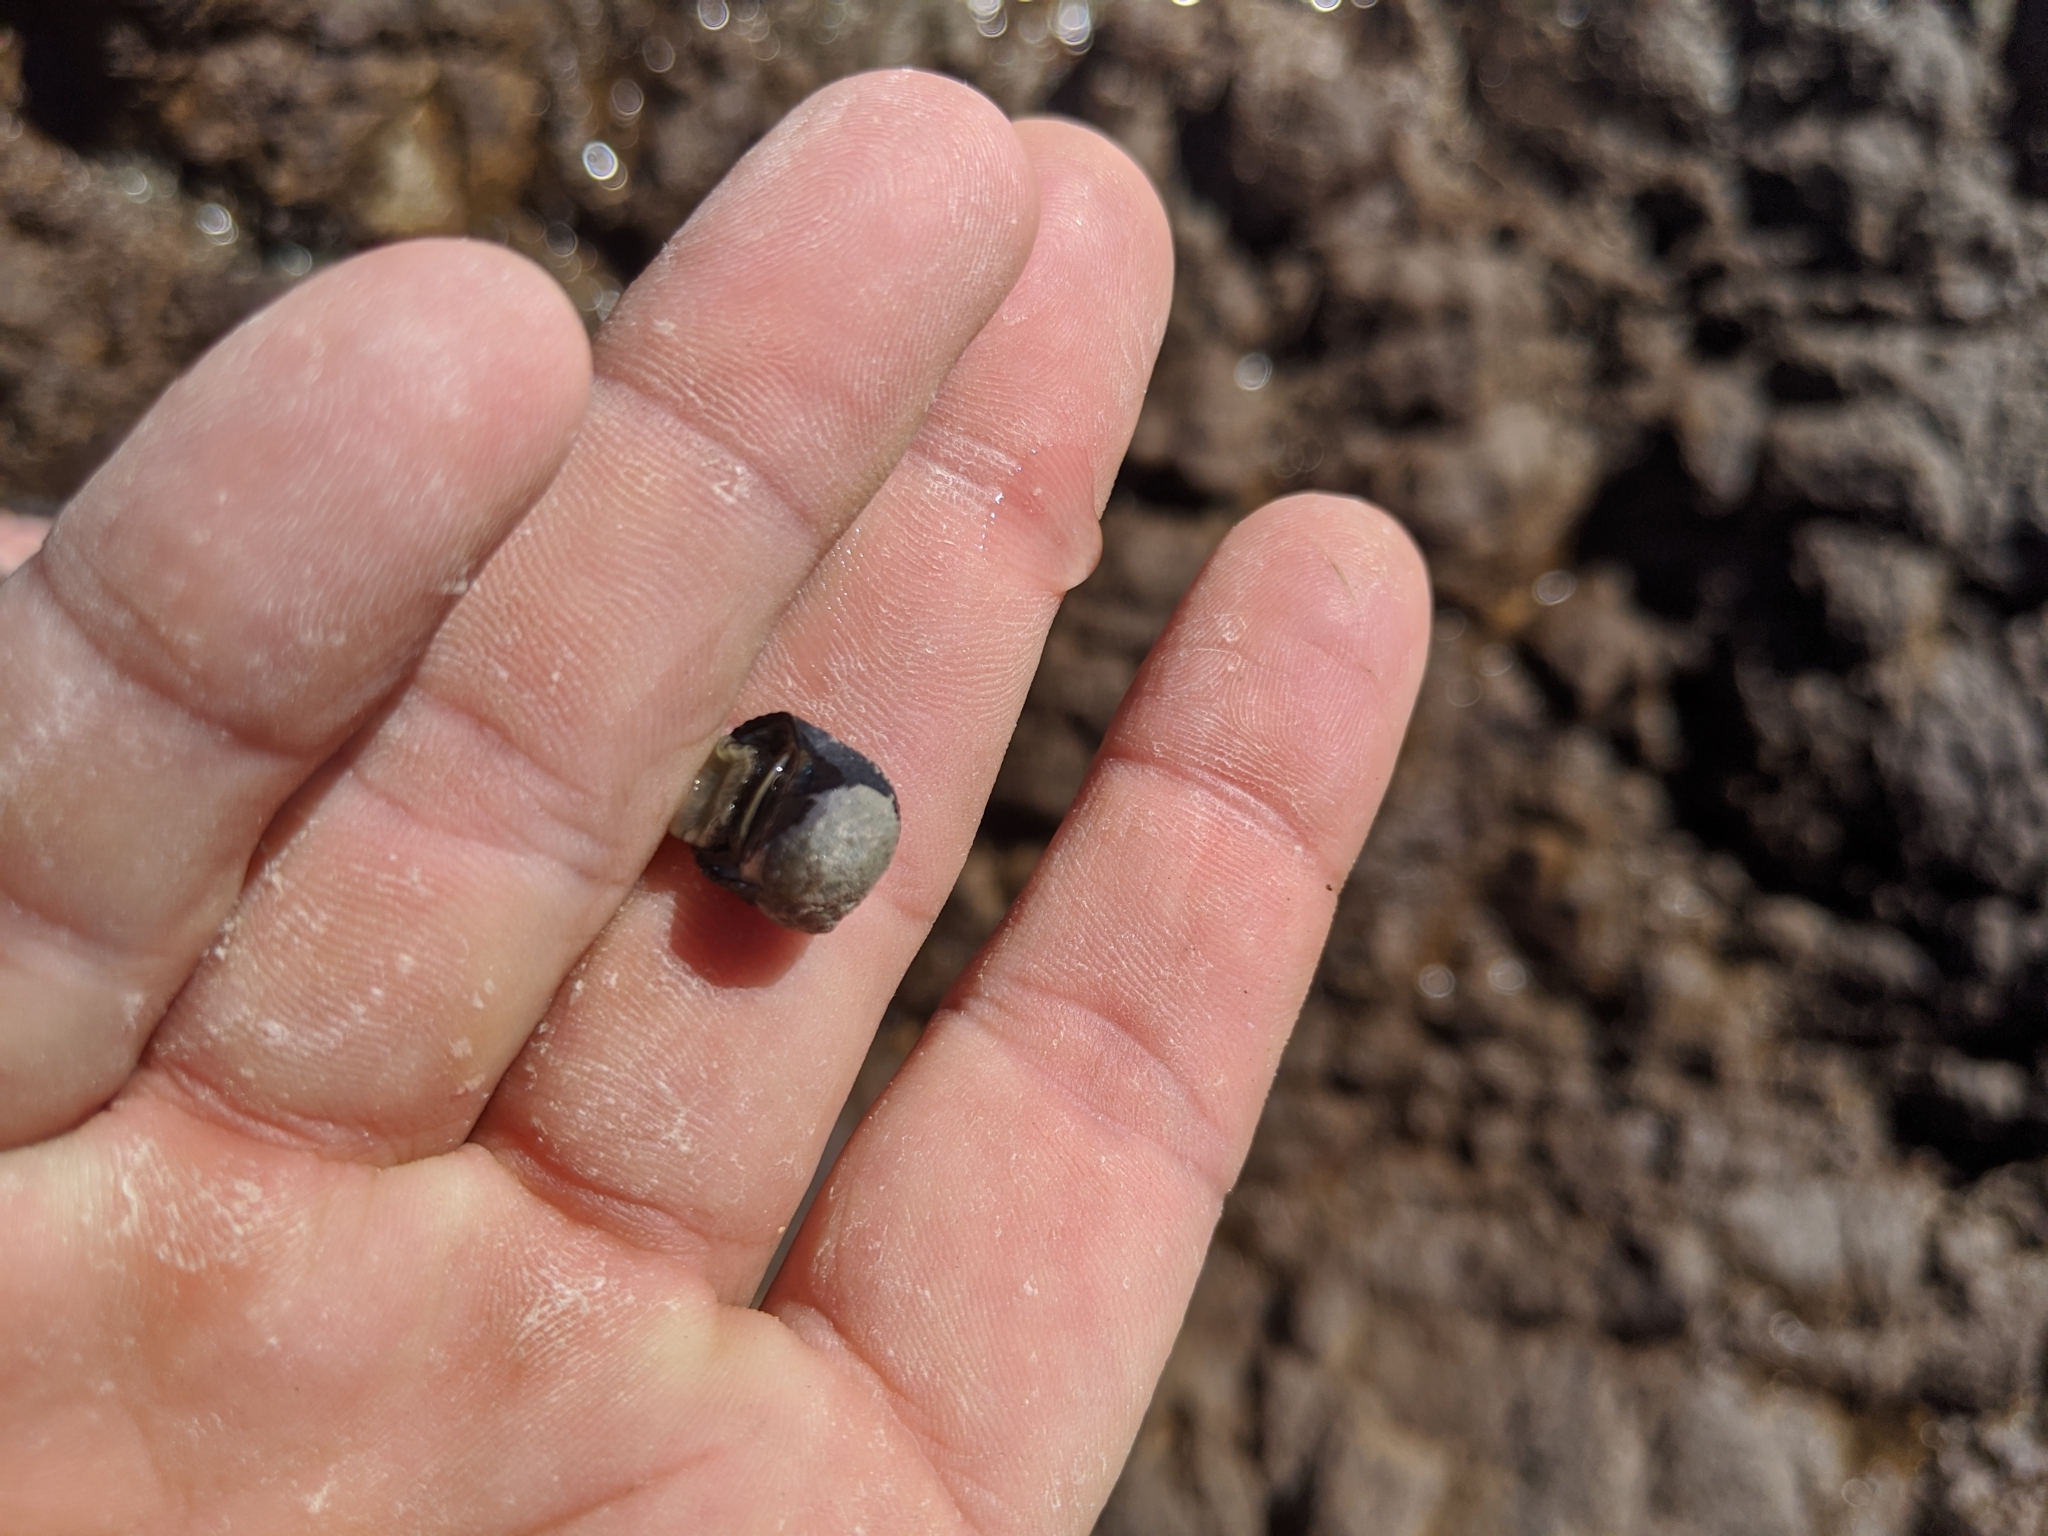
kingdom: Animalia
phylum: Mollusca
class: Gastropoda
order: Cycloneritida
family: Neritidae
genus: Nerita
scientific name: Nerita scabricosta
